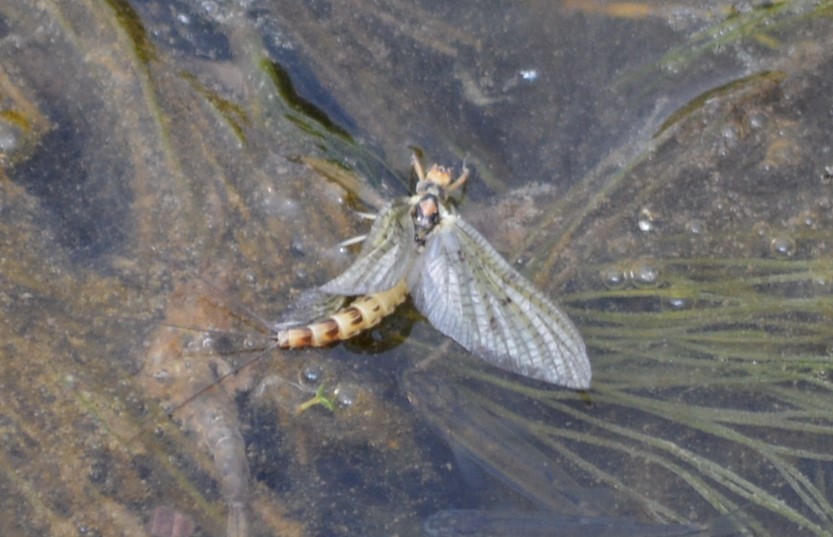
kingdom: Animalia
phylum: Arthropoda
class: Insecta
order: Ephemeroptera
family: Ephemeridae
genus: Ephemera
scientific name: Ephemera danica
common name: Green dun
